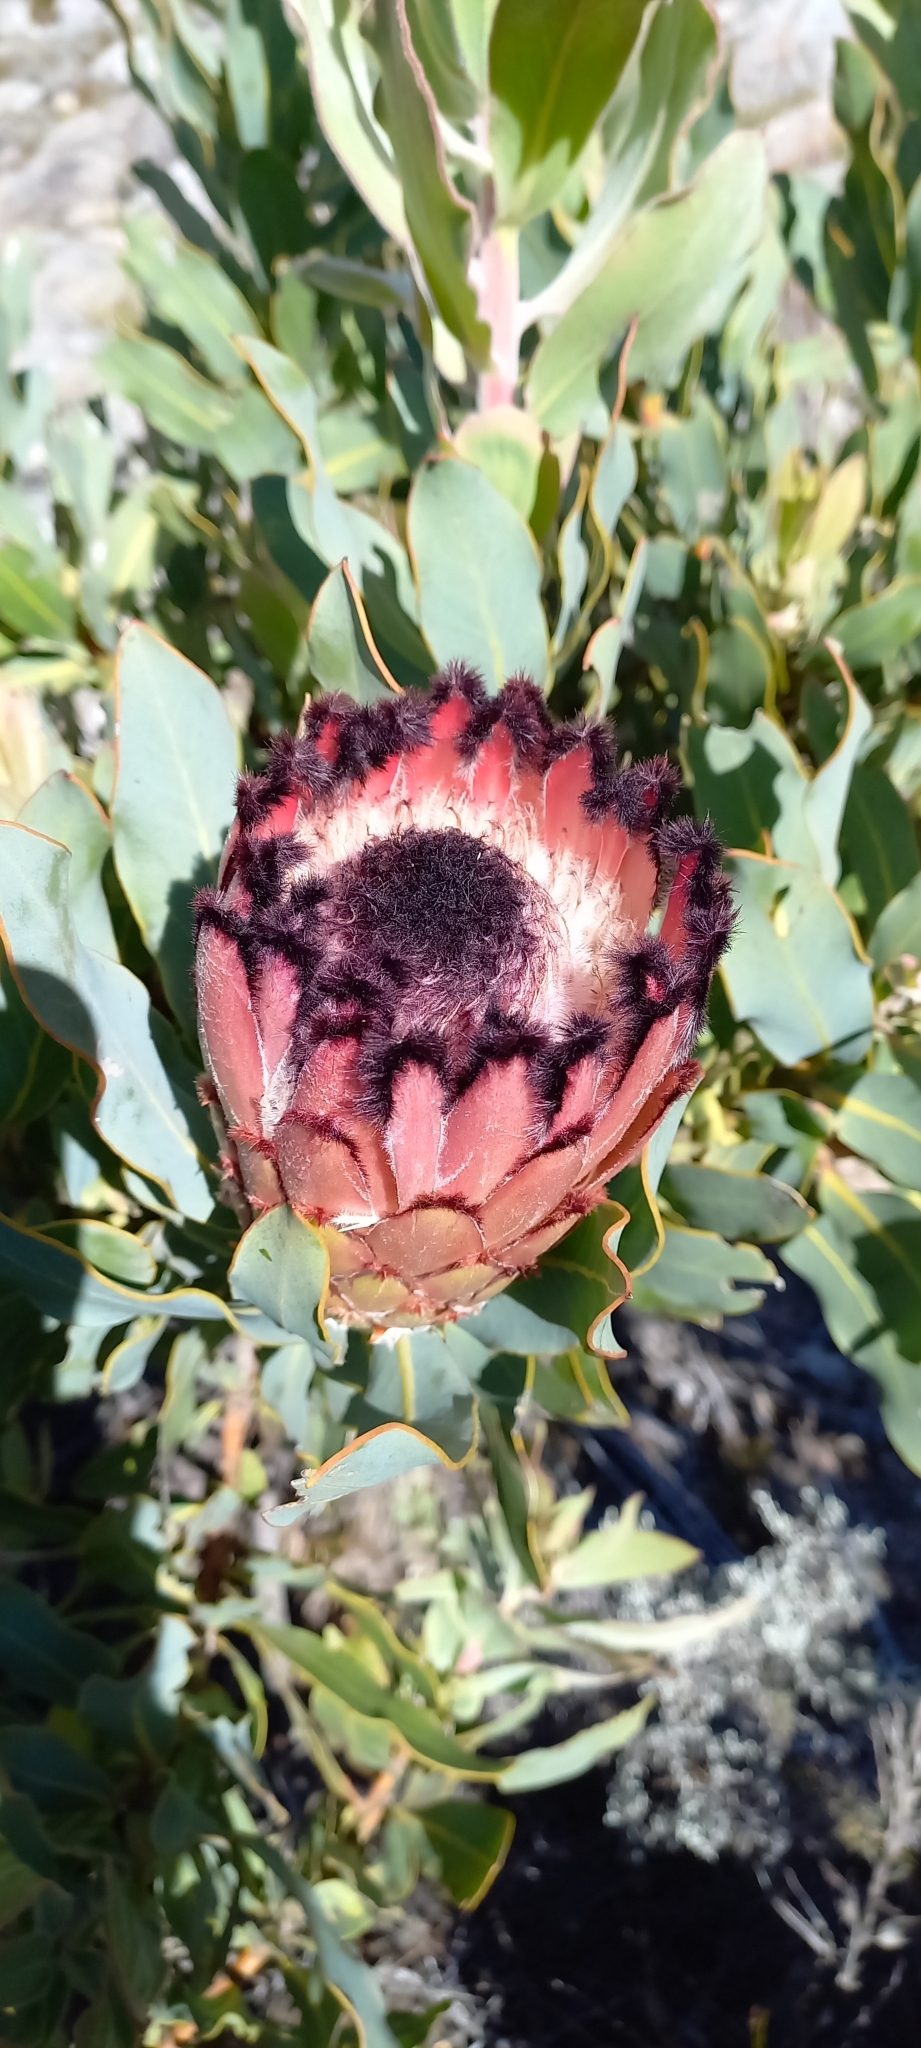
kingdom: Plantae
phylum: Tracheophyta
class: Magnoliopsida
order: Proteales
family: Proteaceae
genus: Protea
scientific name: Protea magnifica
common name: Bearded sugarbush
